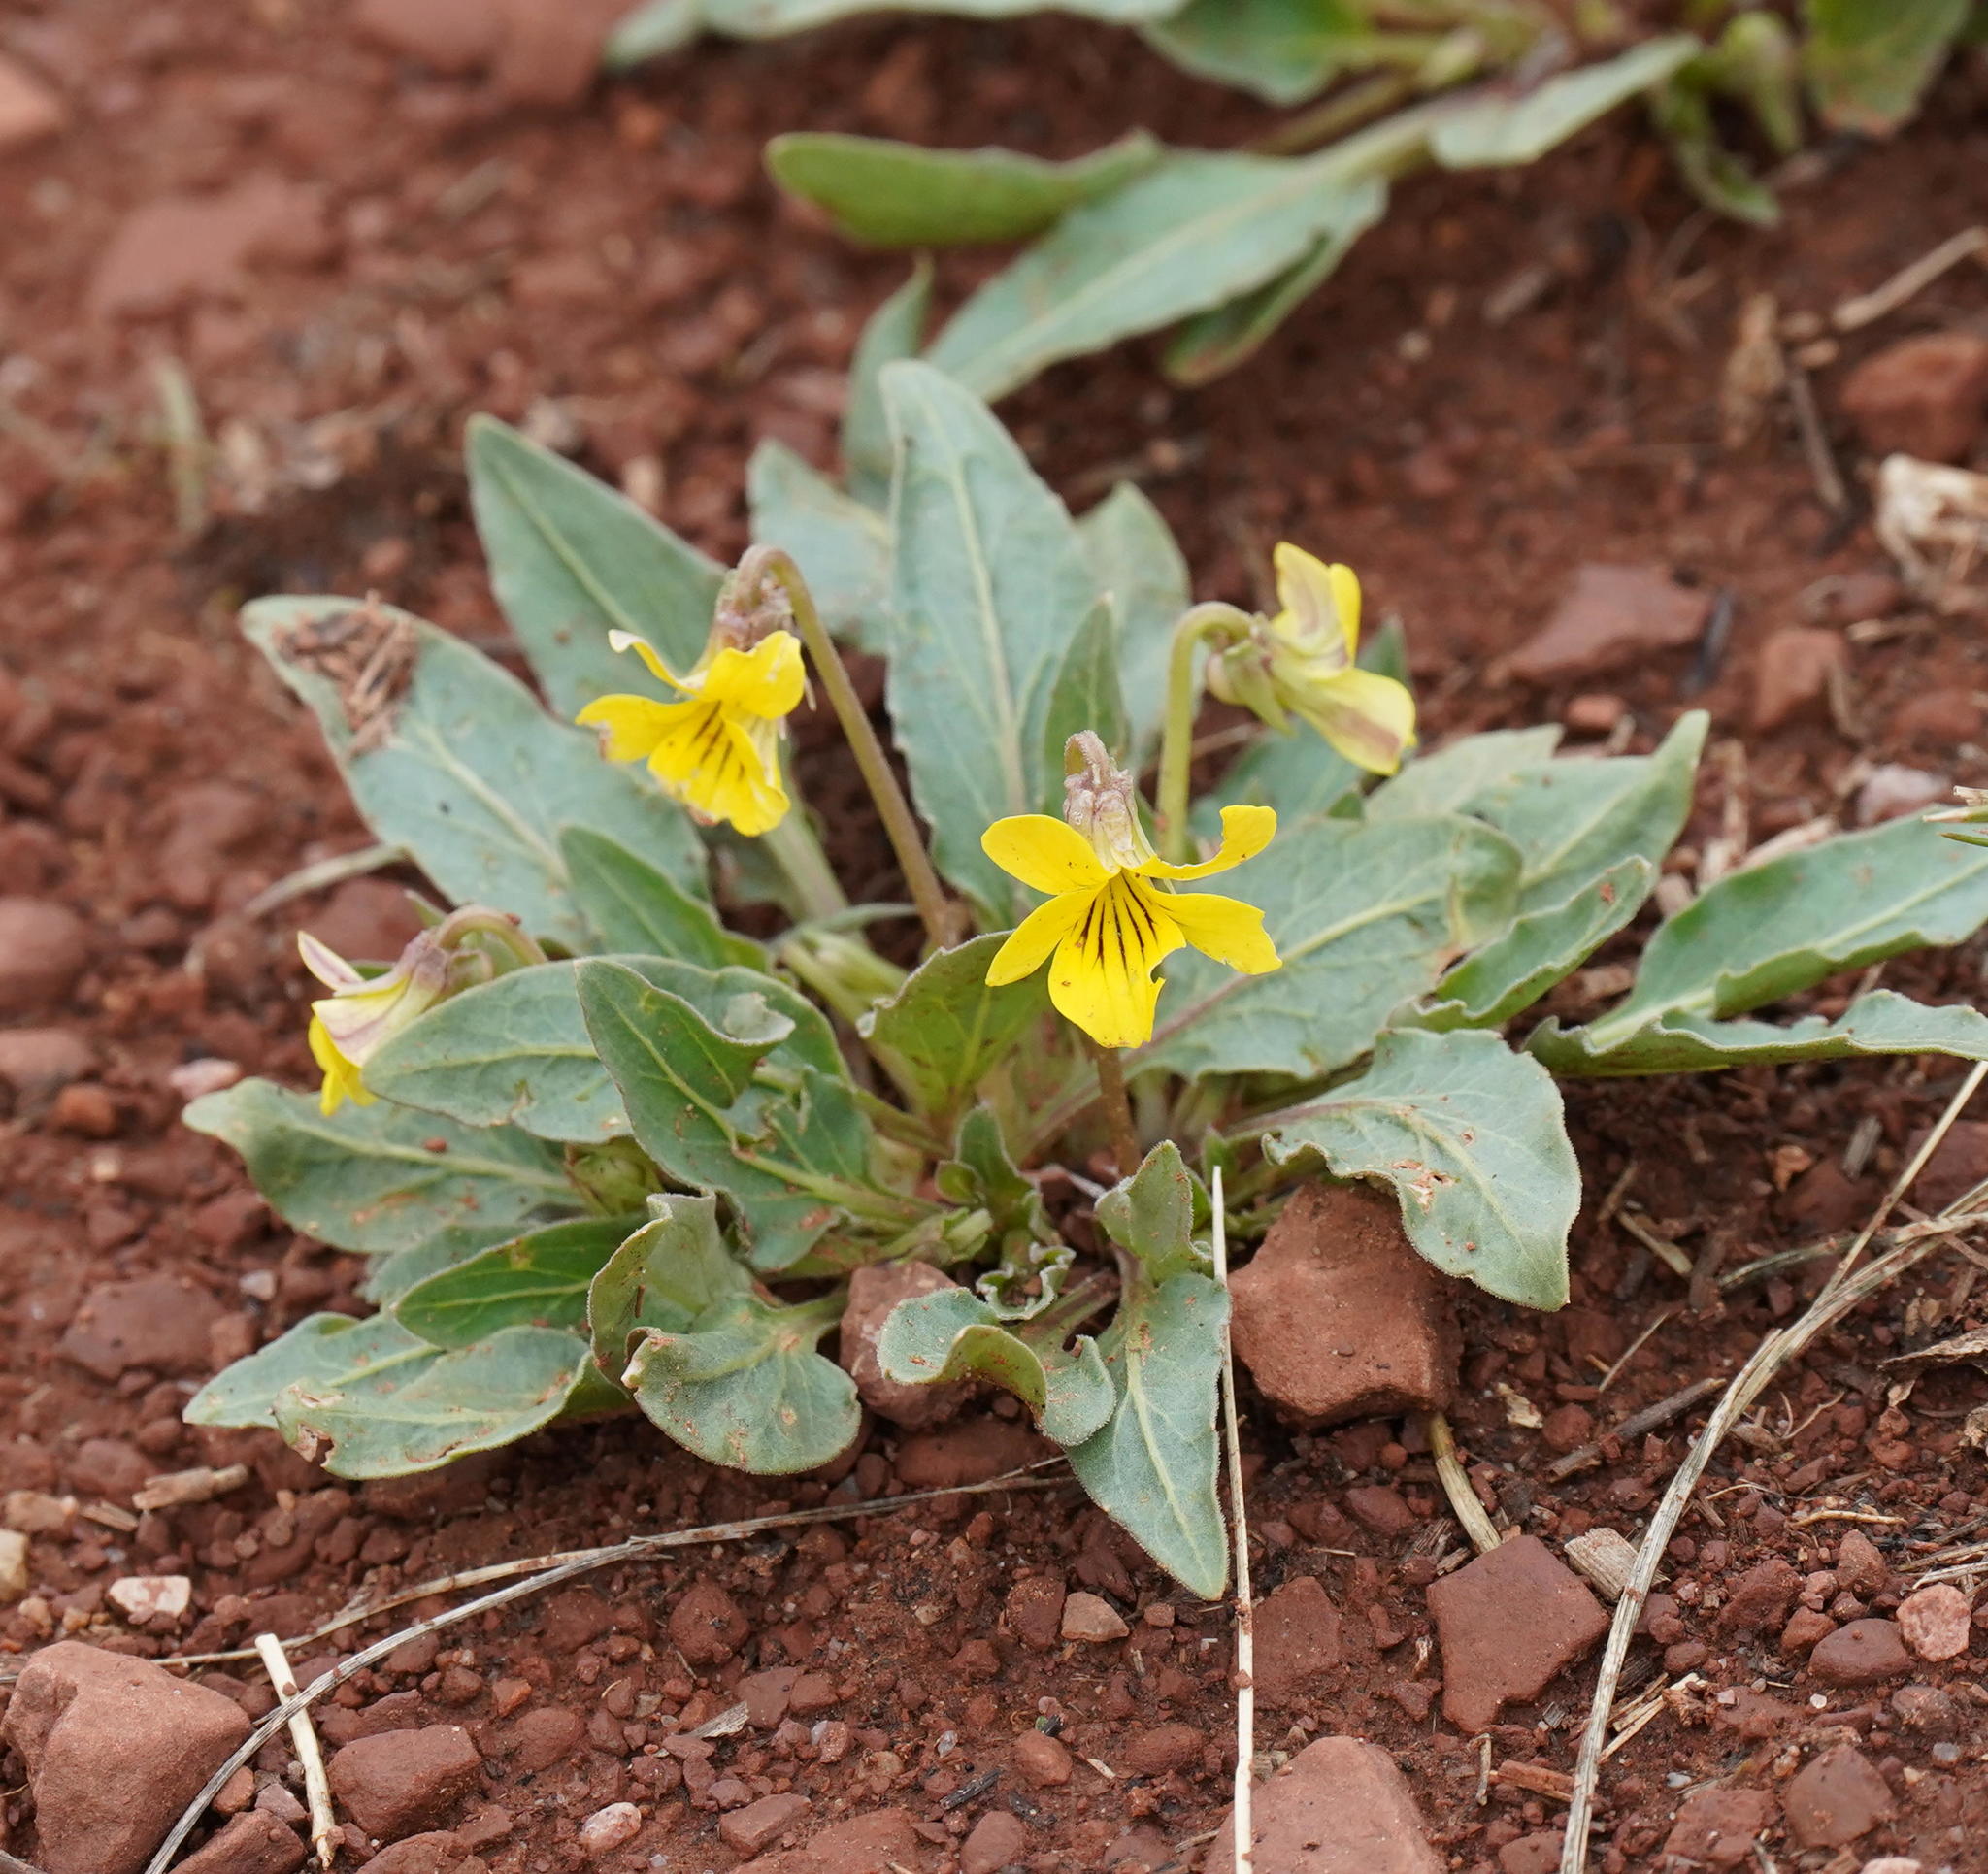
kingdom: Plantae
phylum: Tracheophyta
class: Magnoliopsida
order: Malpighiales
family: Violaceae
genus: Viola
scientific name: Viola nuttallii
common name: Yellow prairie violet
